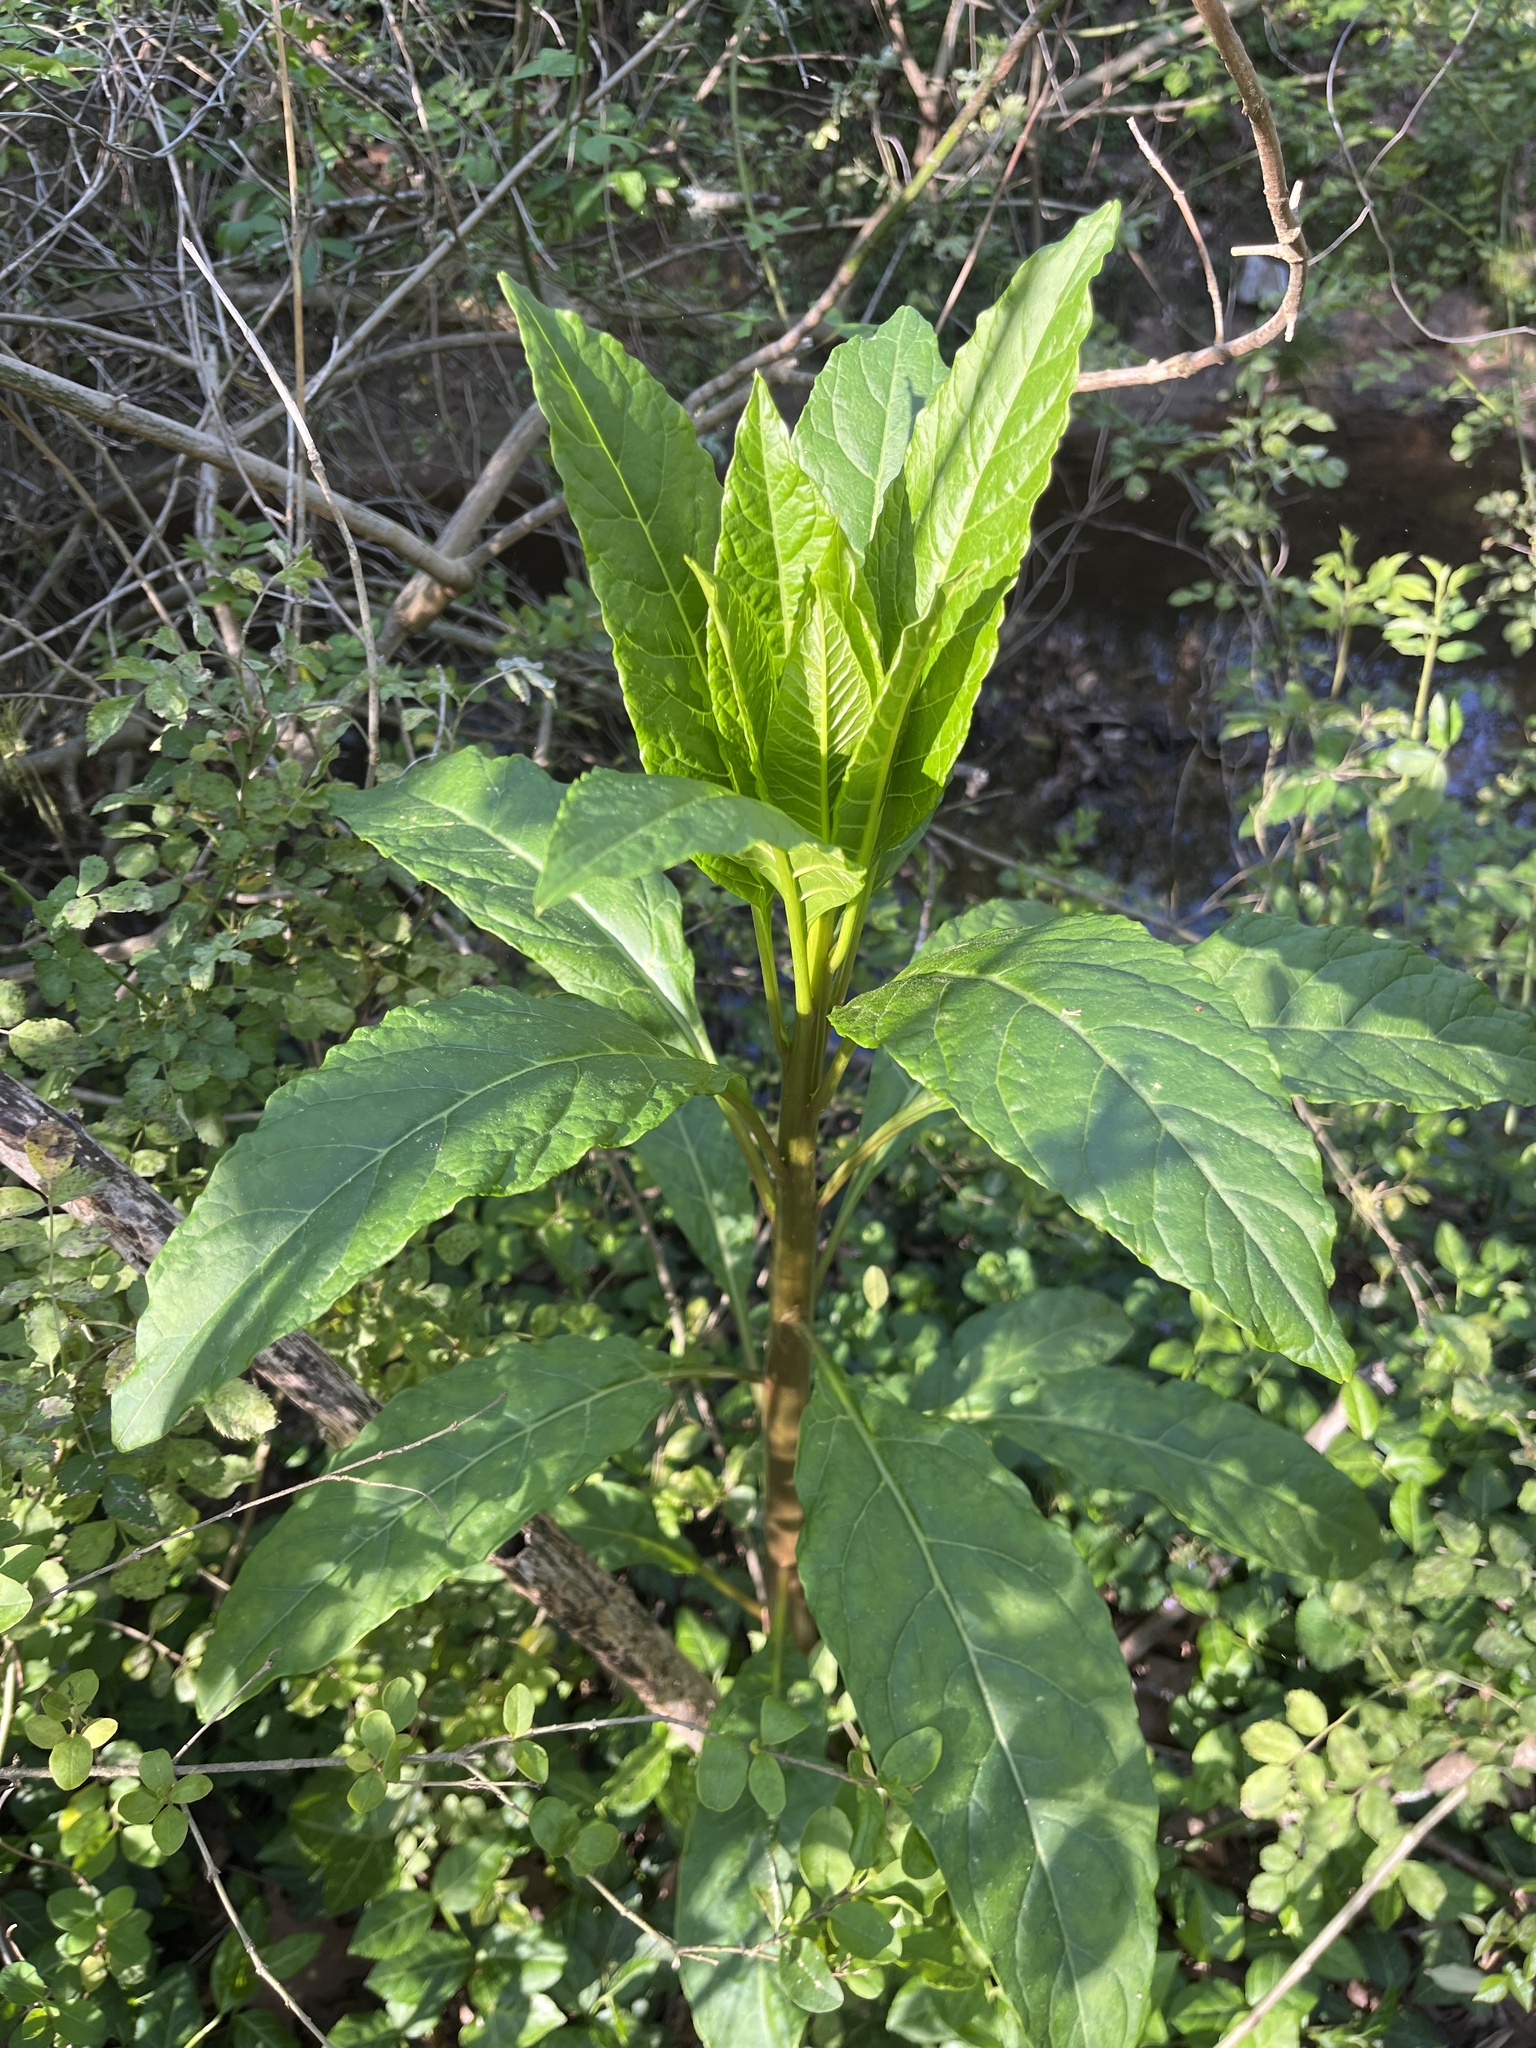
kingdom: Plantae
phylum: Tracheophyta
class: Magnoliopsida
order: Caryophyllales
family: Phytolaccaceae
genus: Phytolacca
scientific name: Phytolacca americana
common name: American pokeweed
